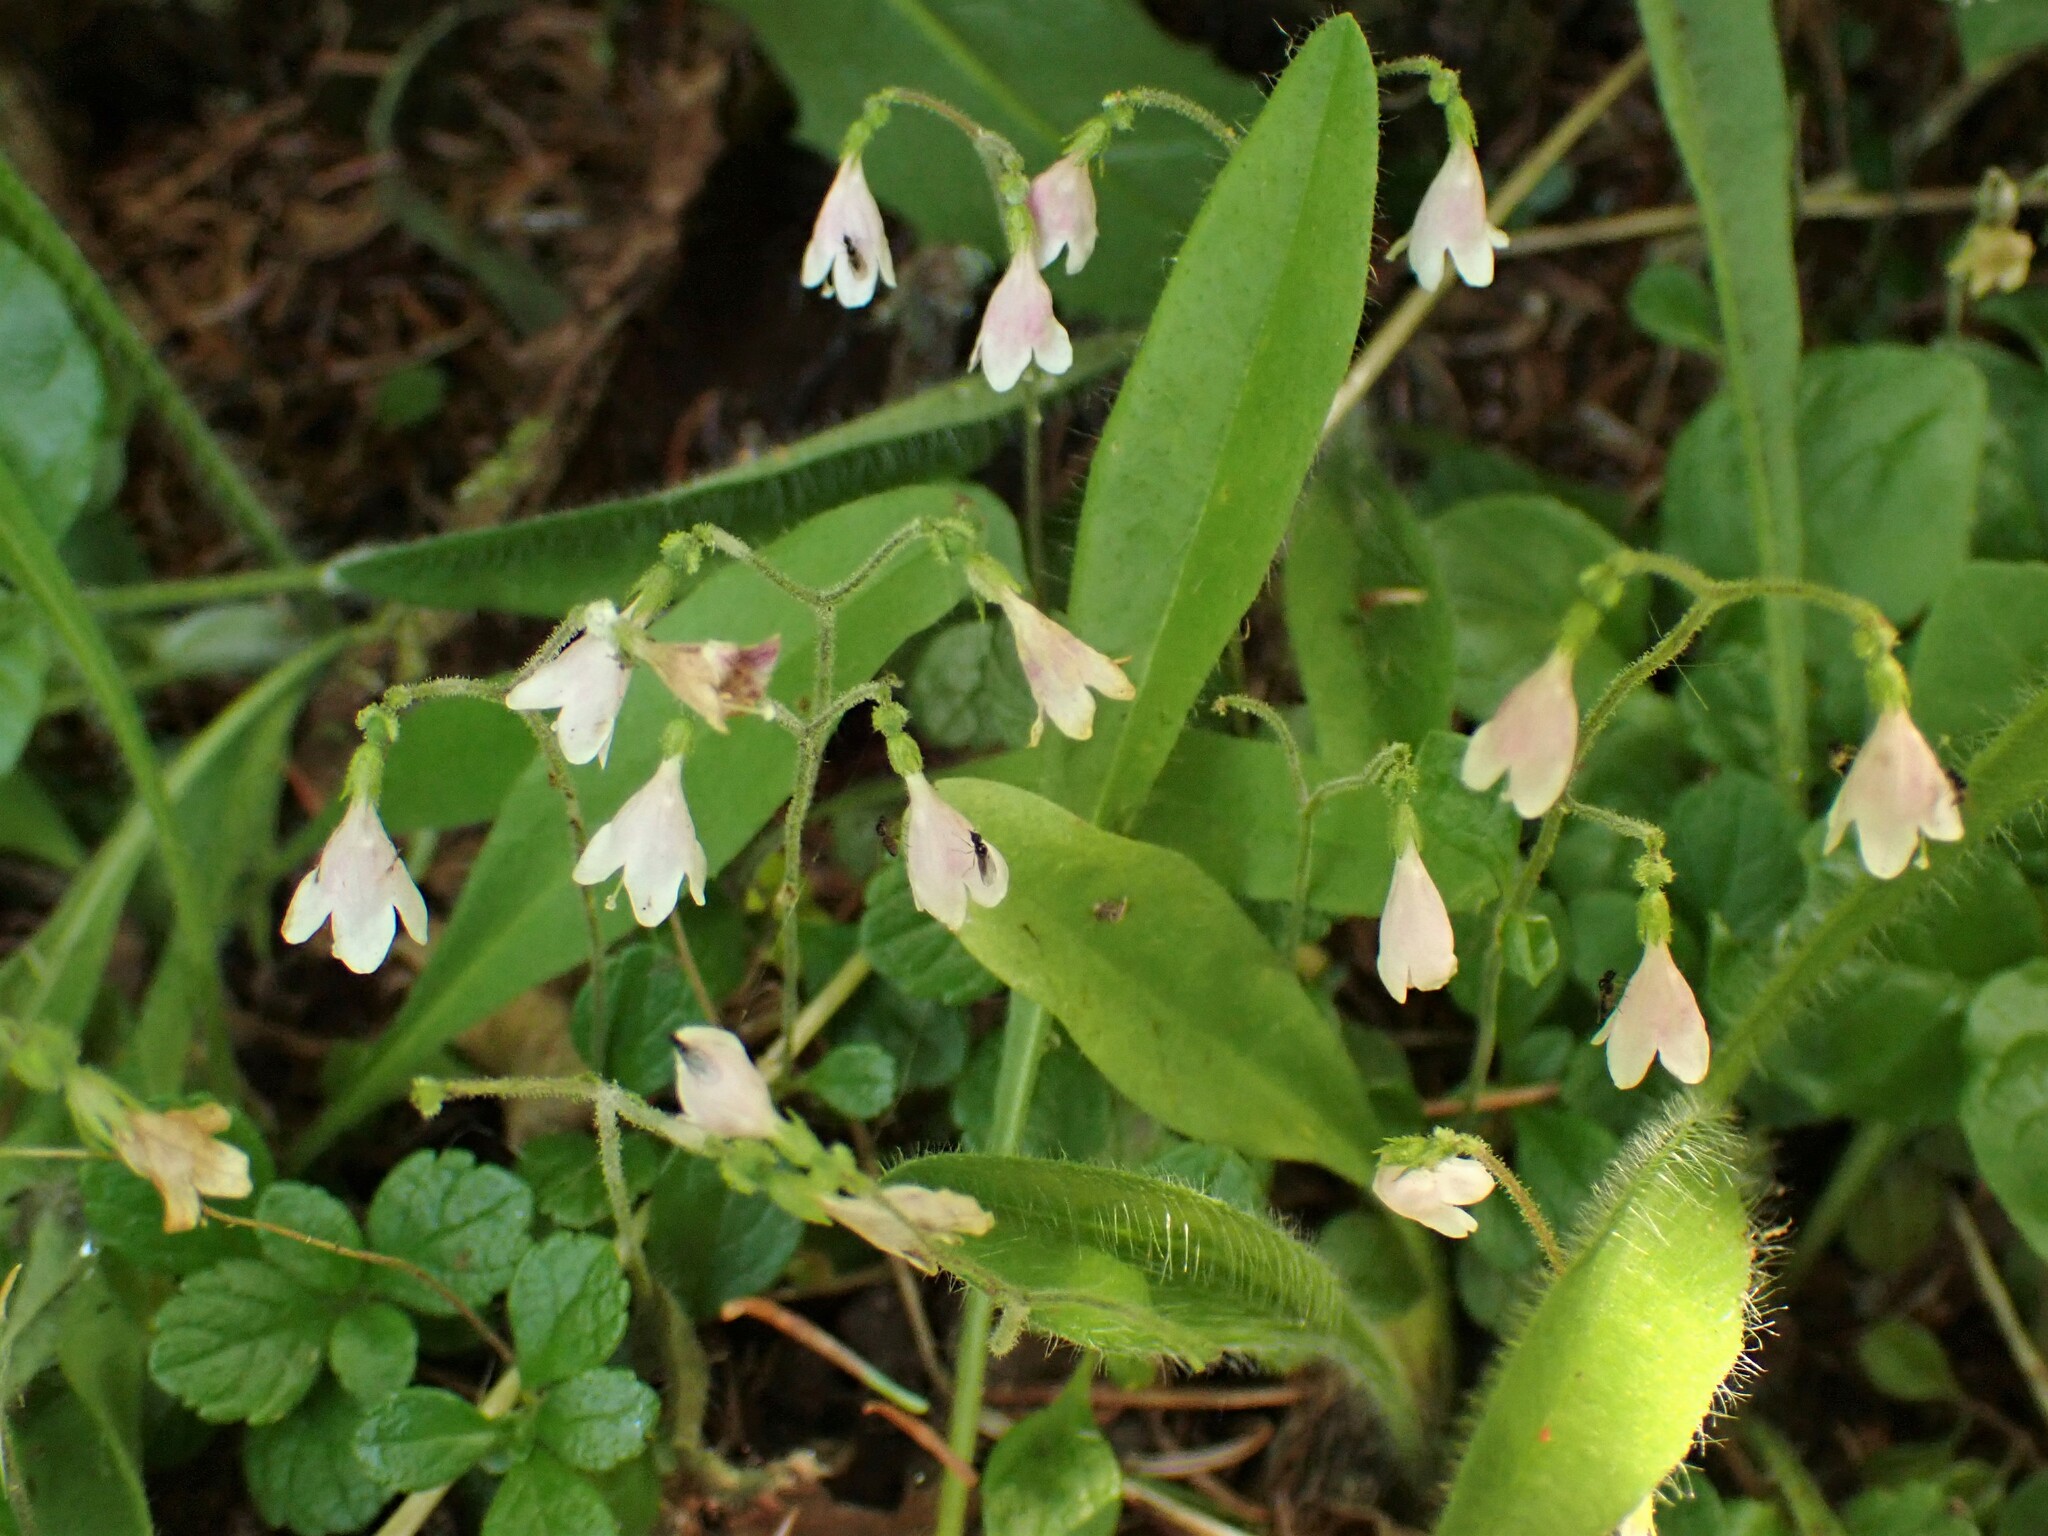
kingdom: Plantae
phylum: Tracheophyta
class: Magnoliopsida
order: Dipsacales
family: Caprifoliaceae
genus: Linnaea
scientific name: Linnaea borealis
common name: Twinflower
